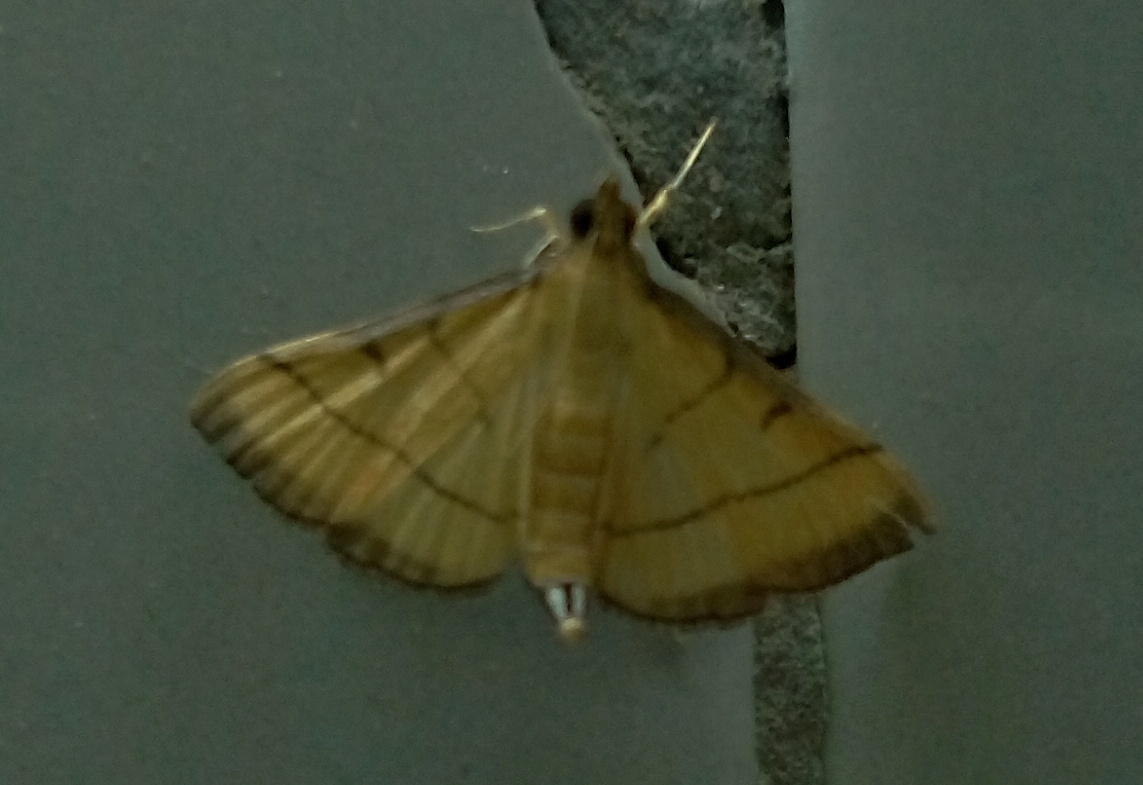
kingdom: Animalia
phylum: Arthropoda
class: Insecta
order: Lepidoptera
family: Crambidae
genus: Cnaphalocrocis
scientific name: Cnaphalocrocis medinalis
